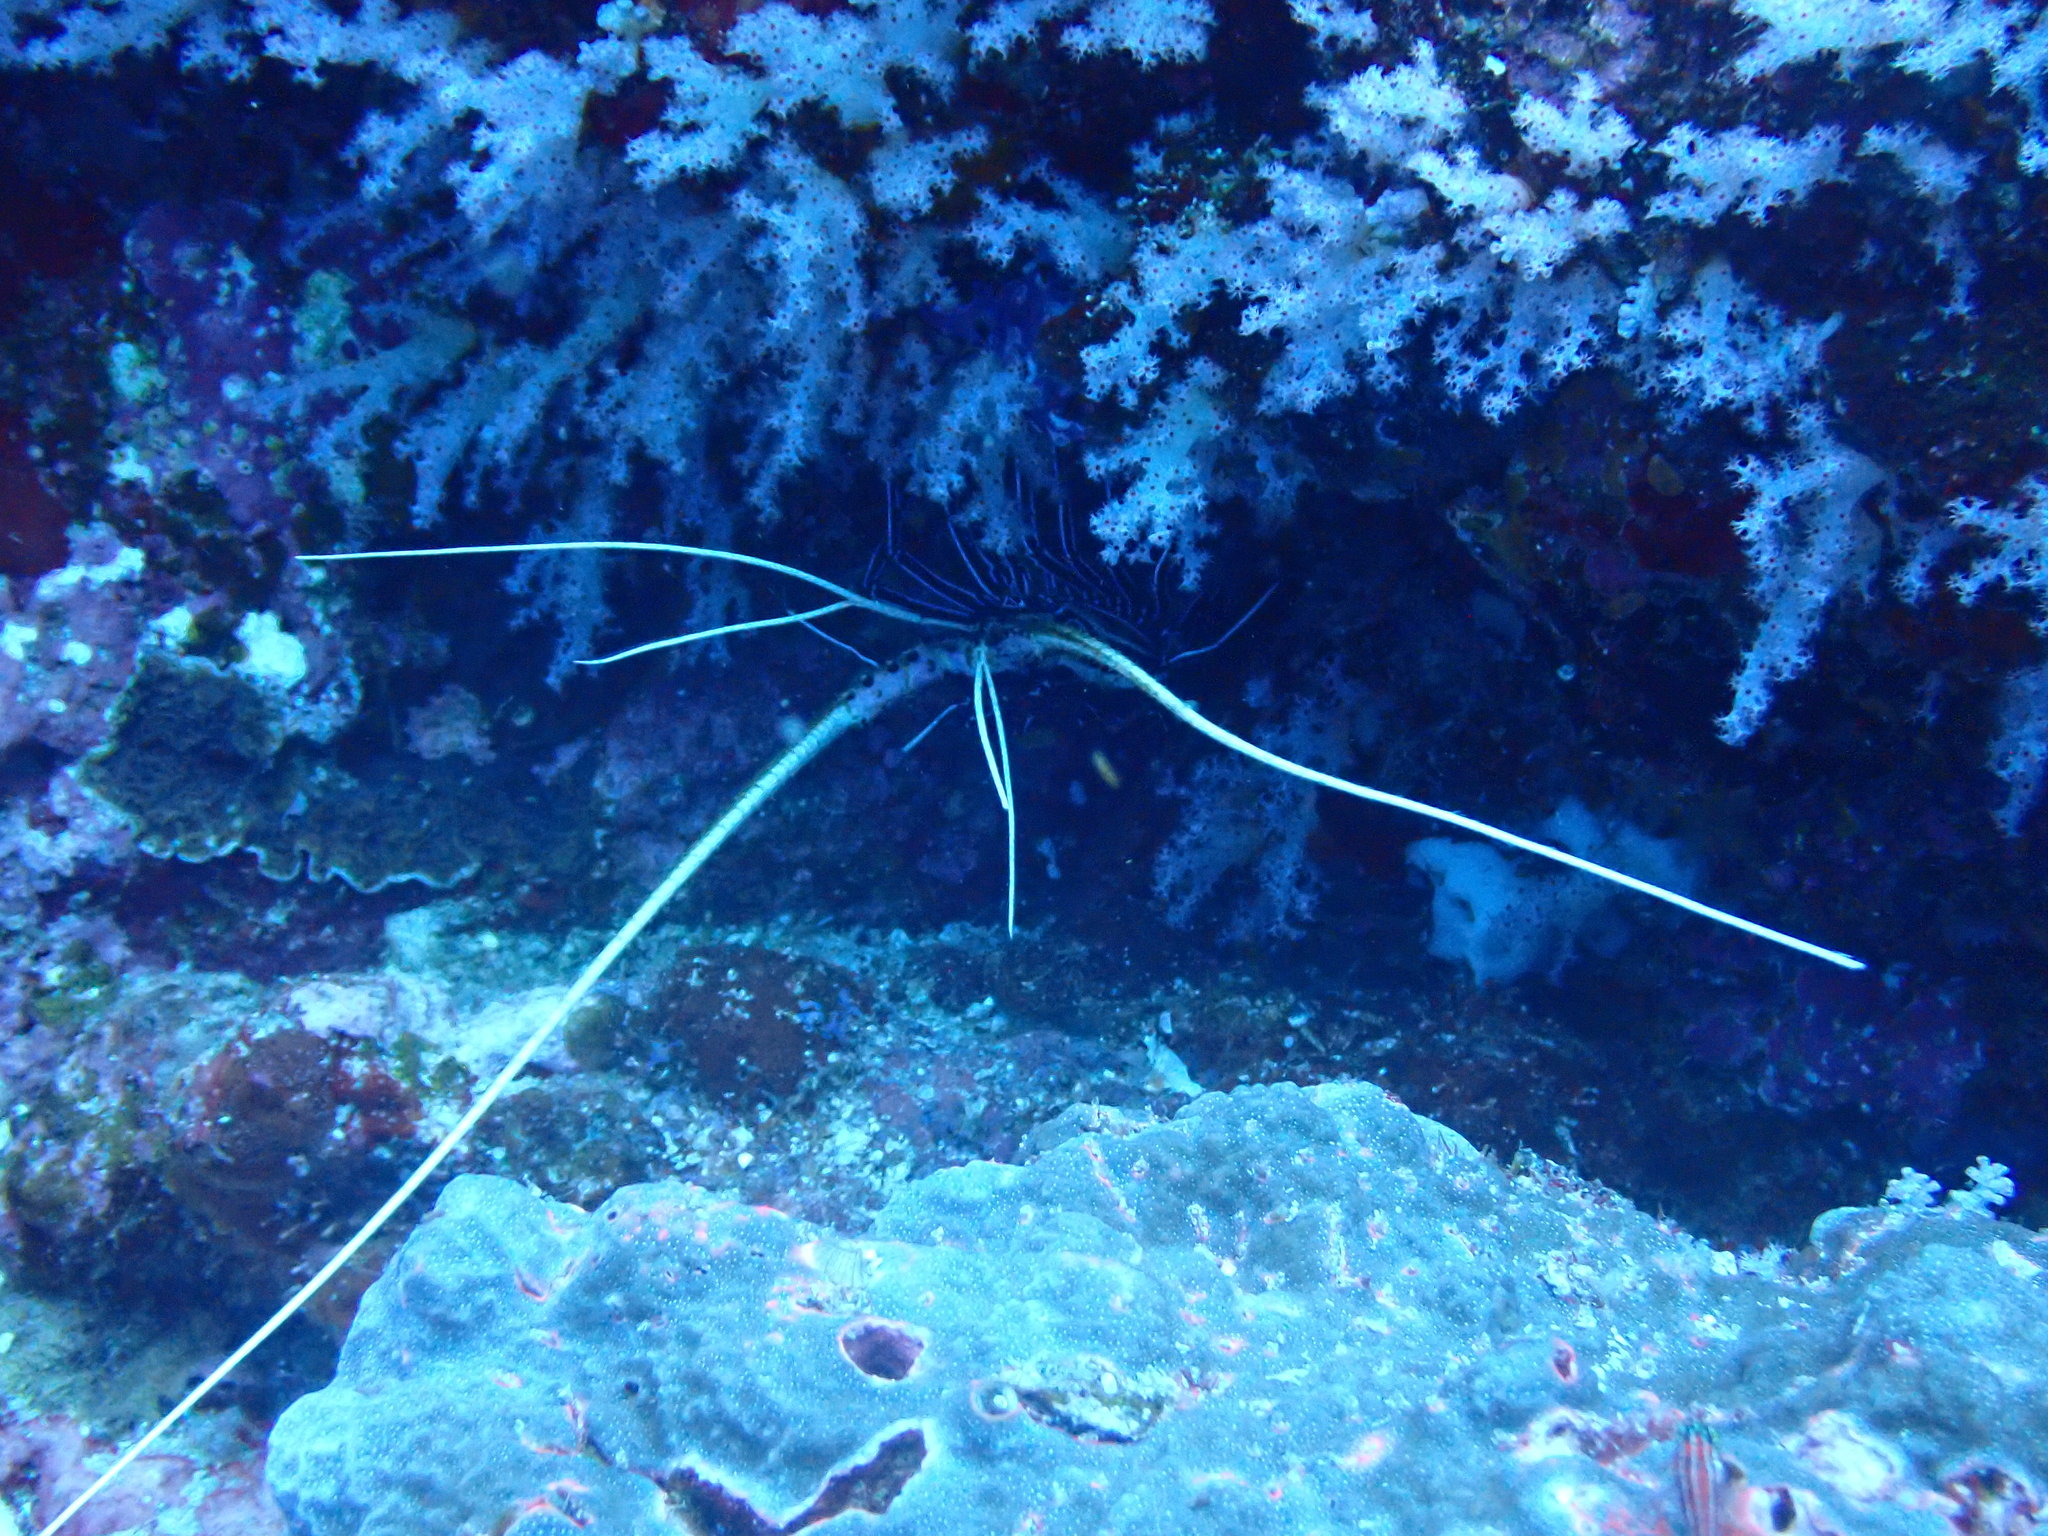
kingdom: Animalia
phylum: Arthropoda
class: Malacostraca
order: Decapoda
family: Palinuridae
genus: Panulirus
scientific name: Panulirus versicolor
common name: Painted spiny lobster
